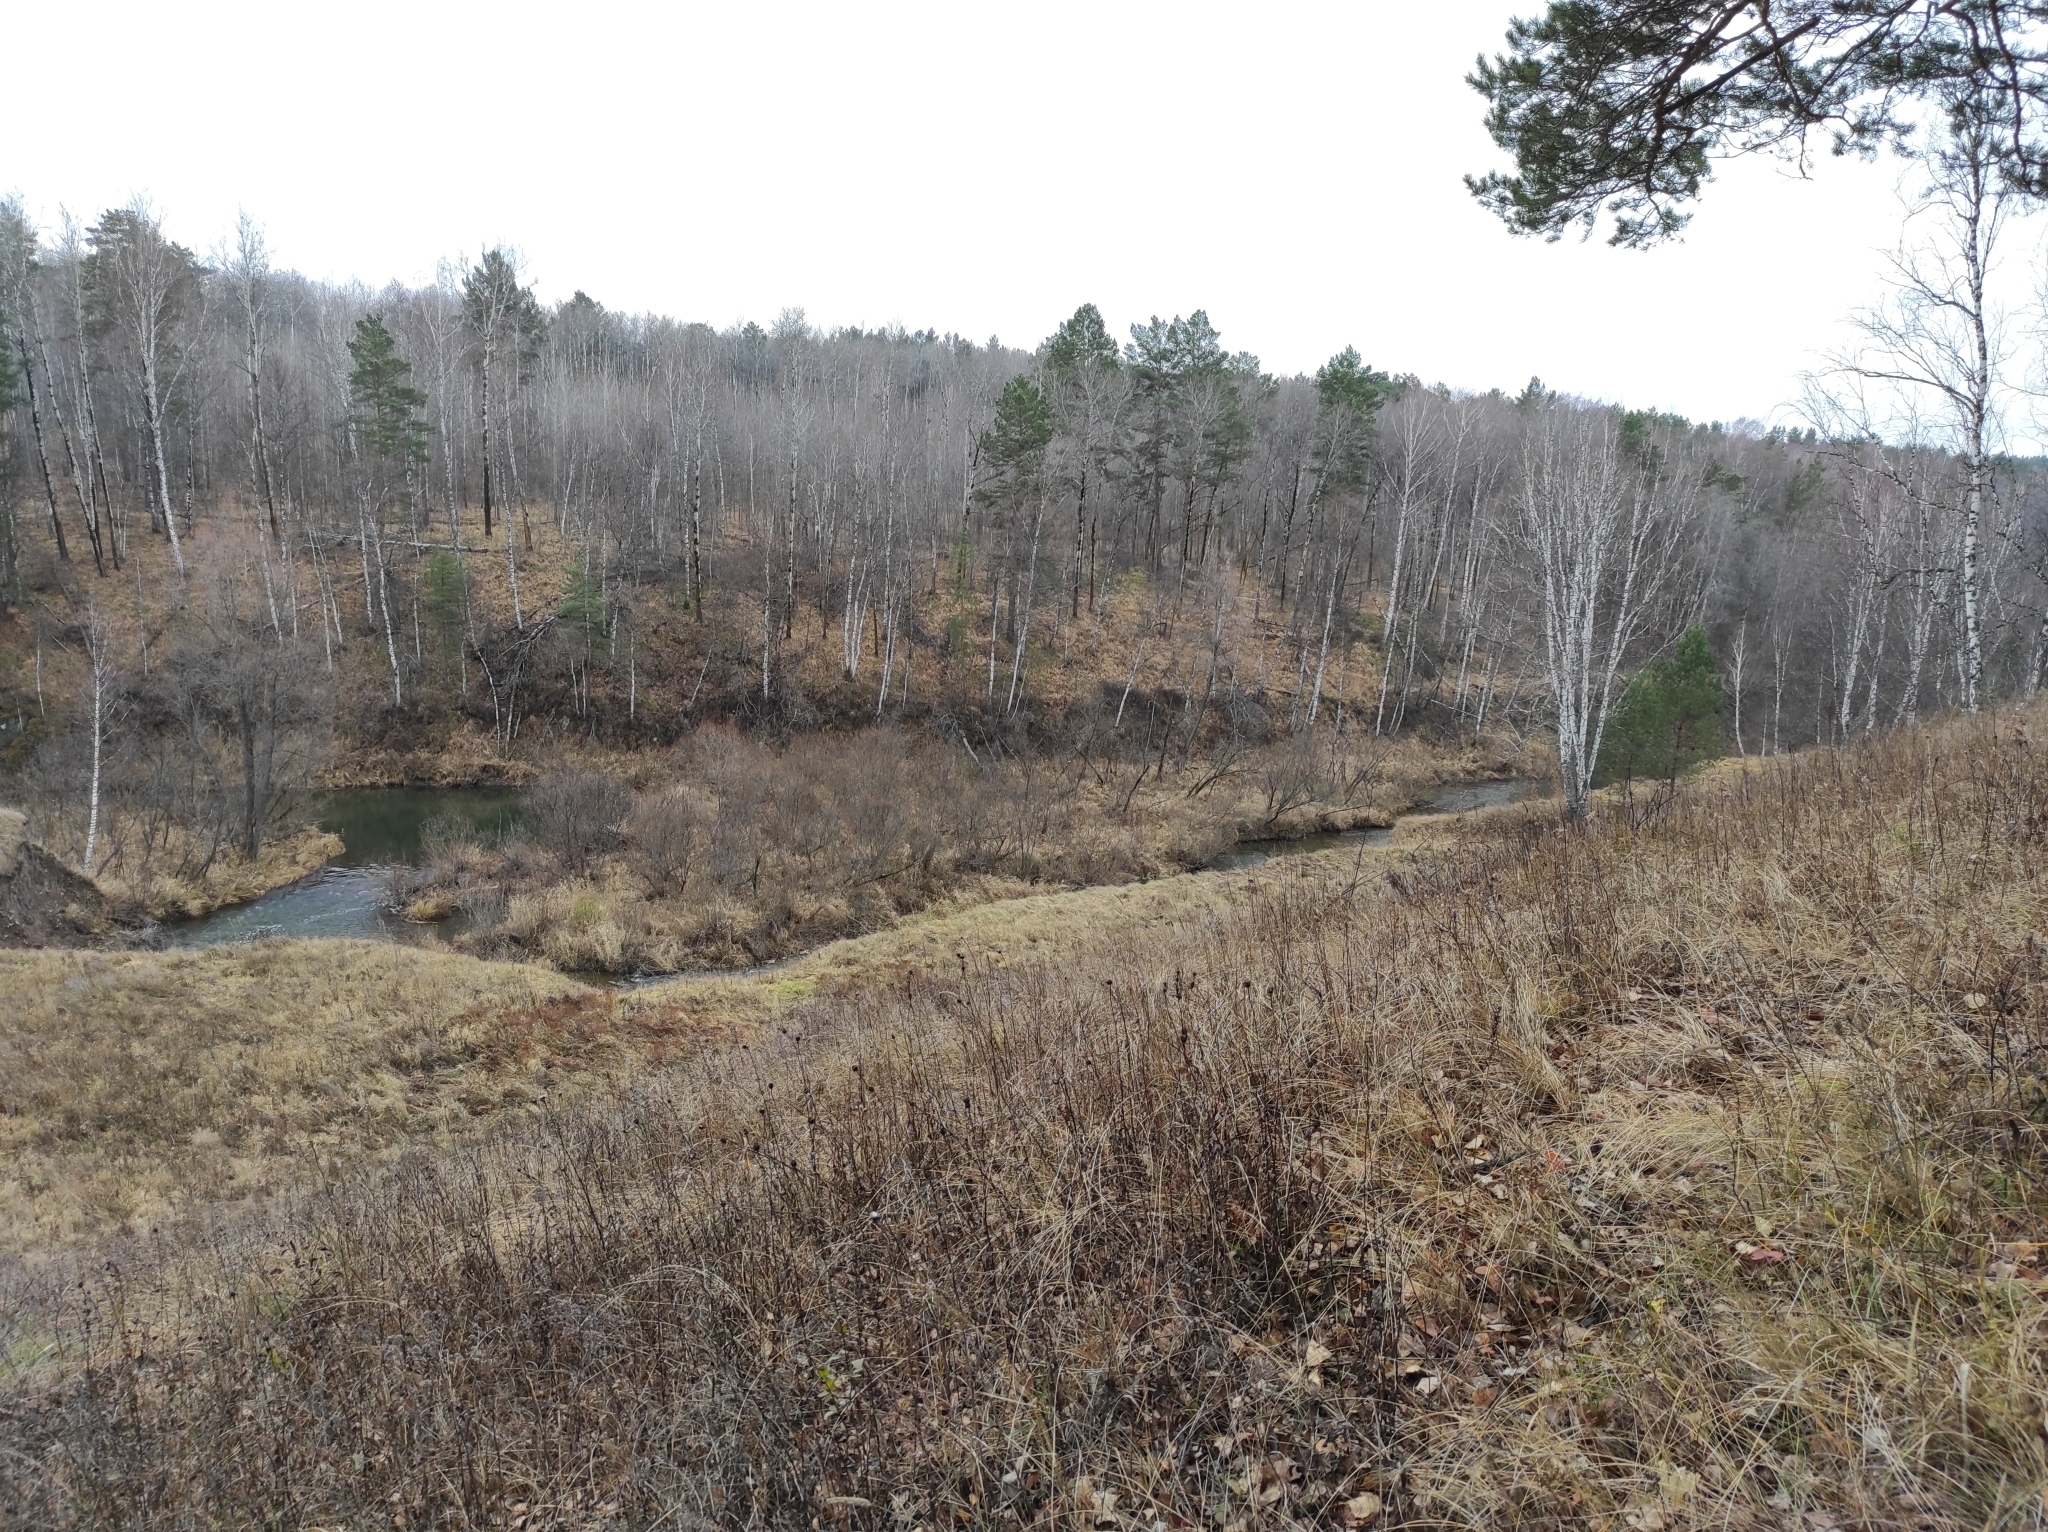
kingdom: Plantae
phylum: Tracheophyta
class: Pinopsida
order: Pinales
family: Pinaceae
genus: Pinus
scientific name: Pinus sylvestris
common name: Scots pine
